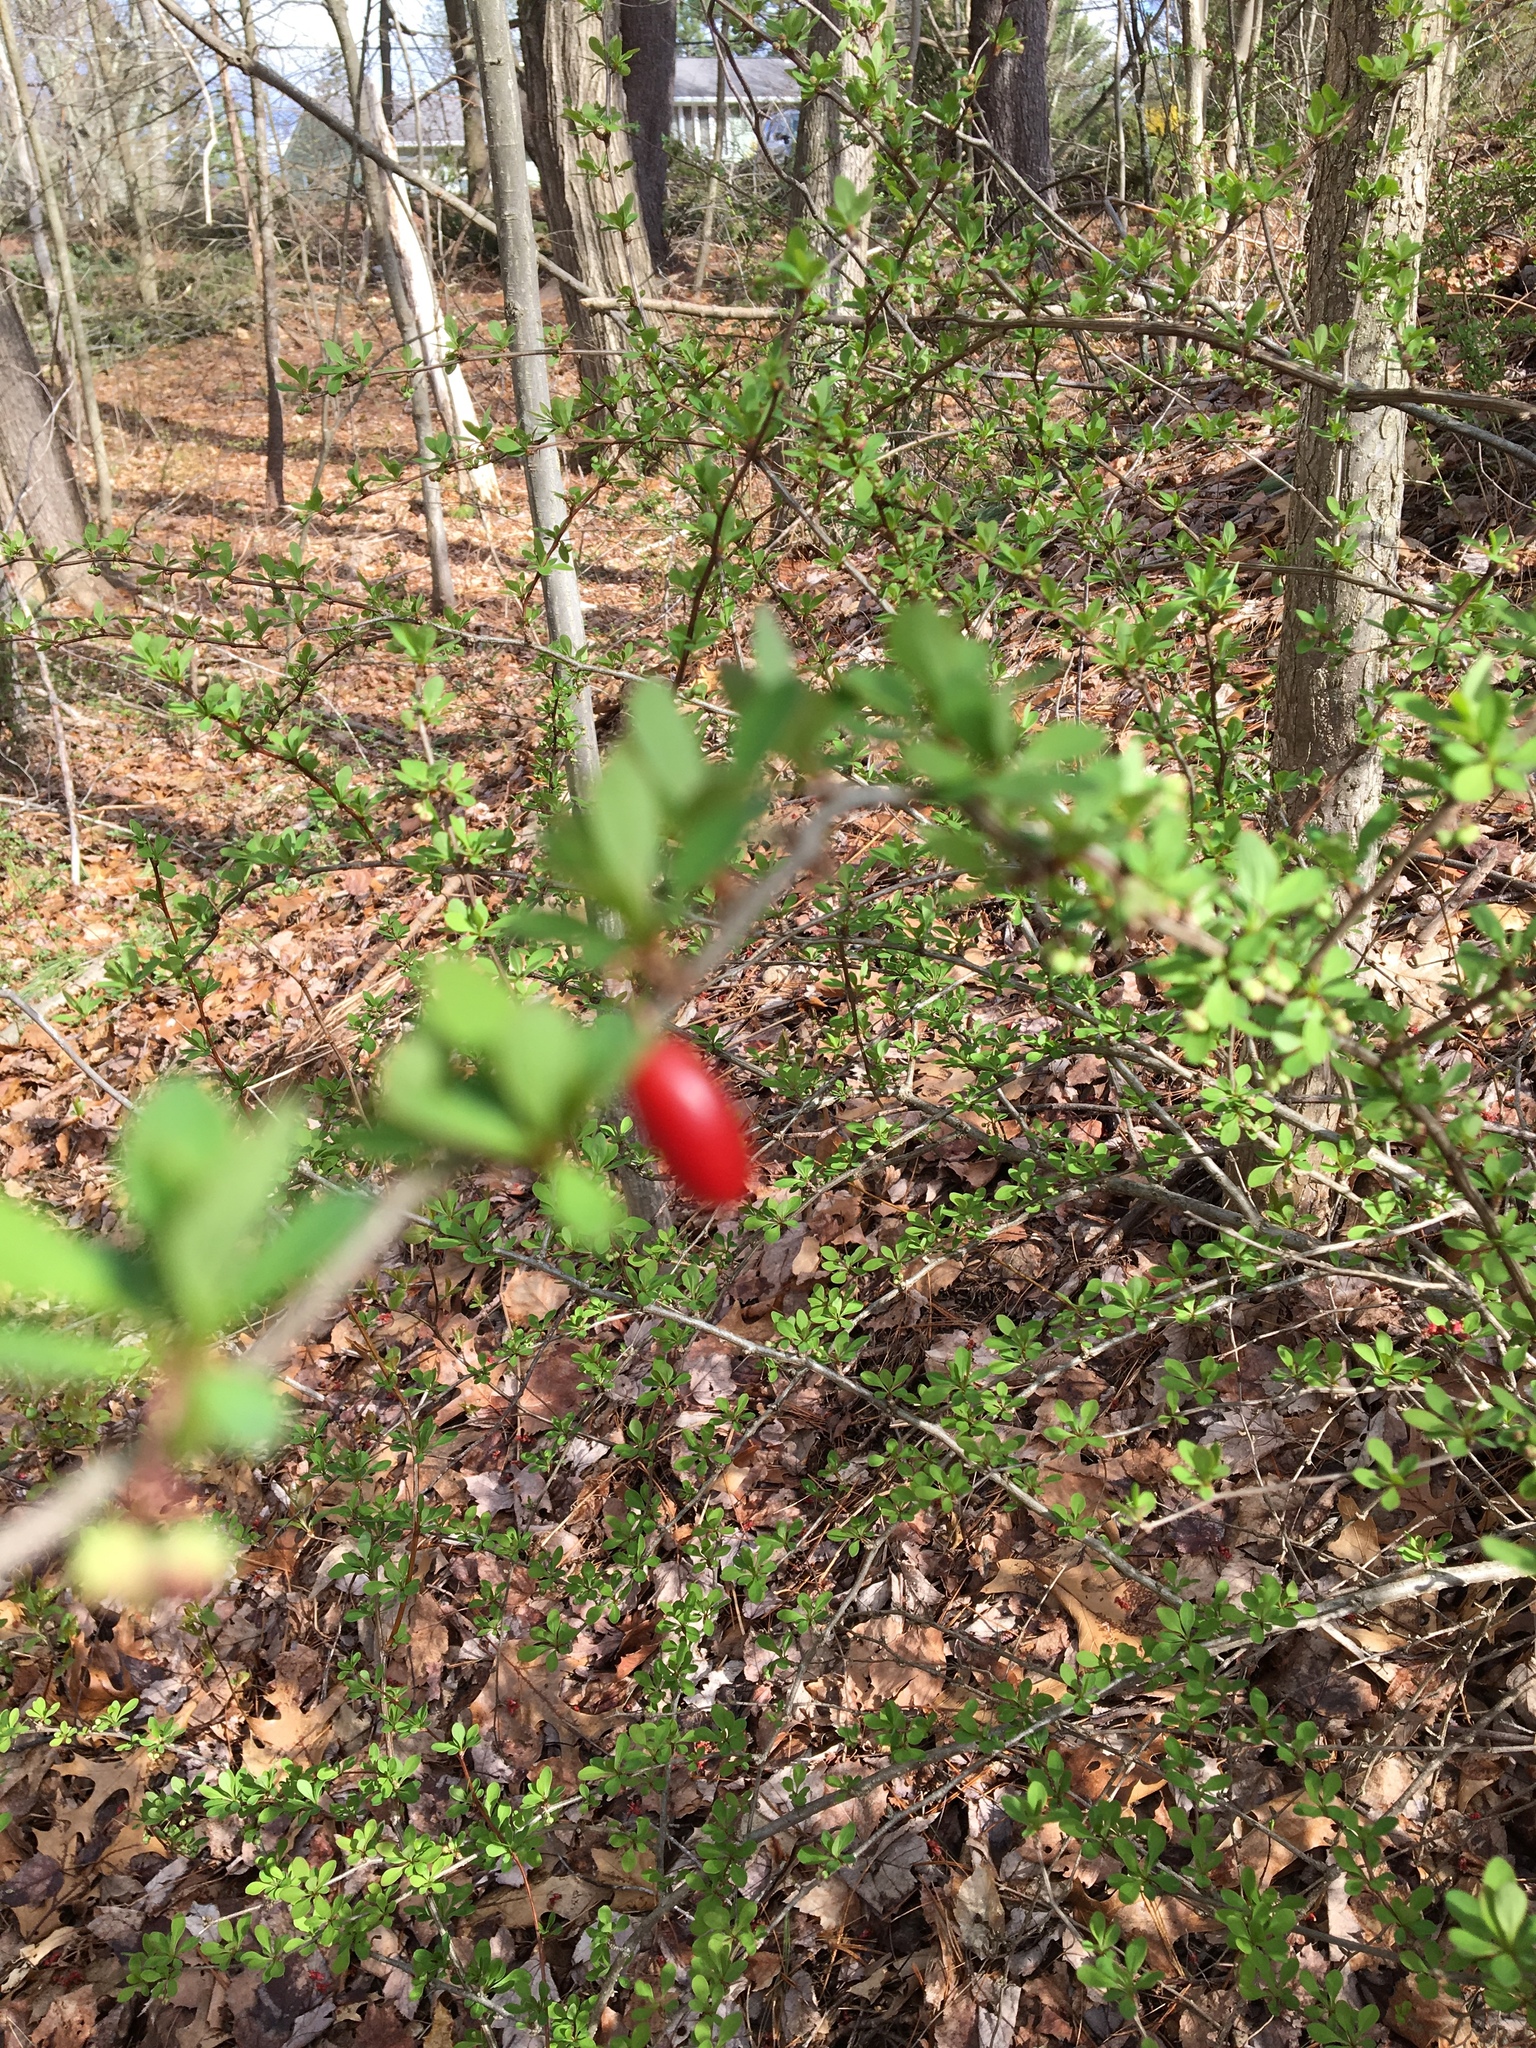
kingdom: Plantae
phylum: Tracheophyta
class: Magnoliopsida
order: Ranunculales
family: Berberidaceae
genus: Berberis
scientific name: Berberis thunbergii
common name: Japanese barberry
